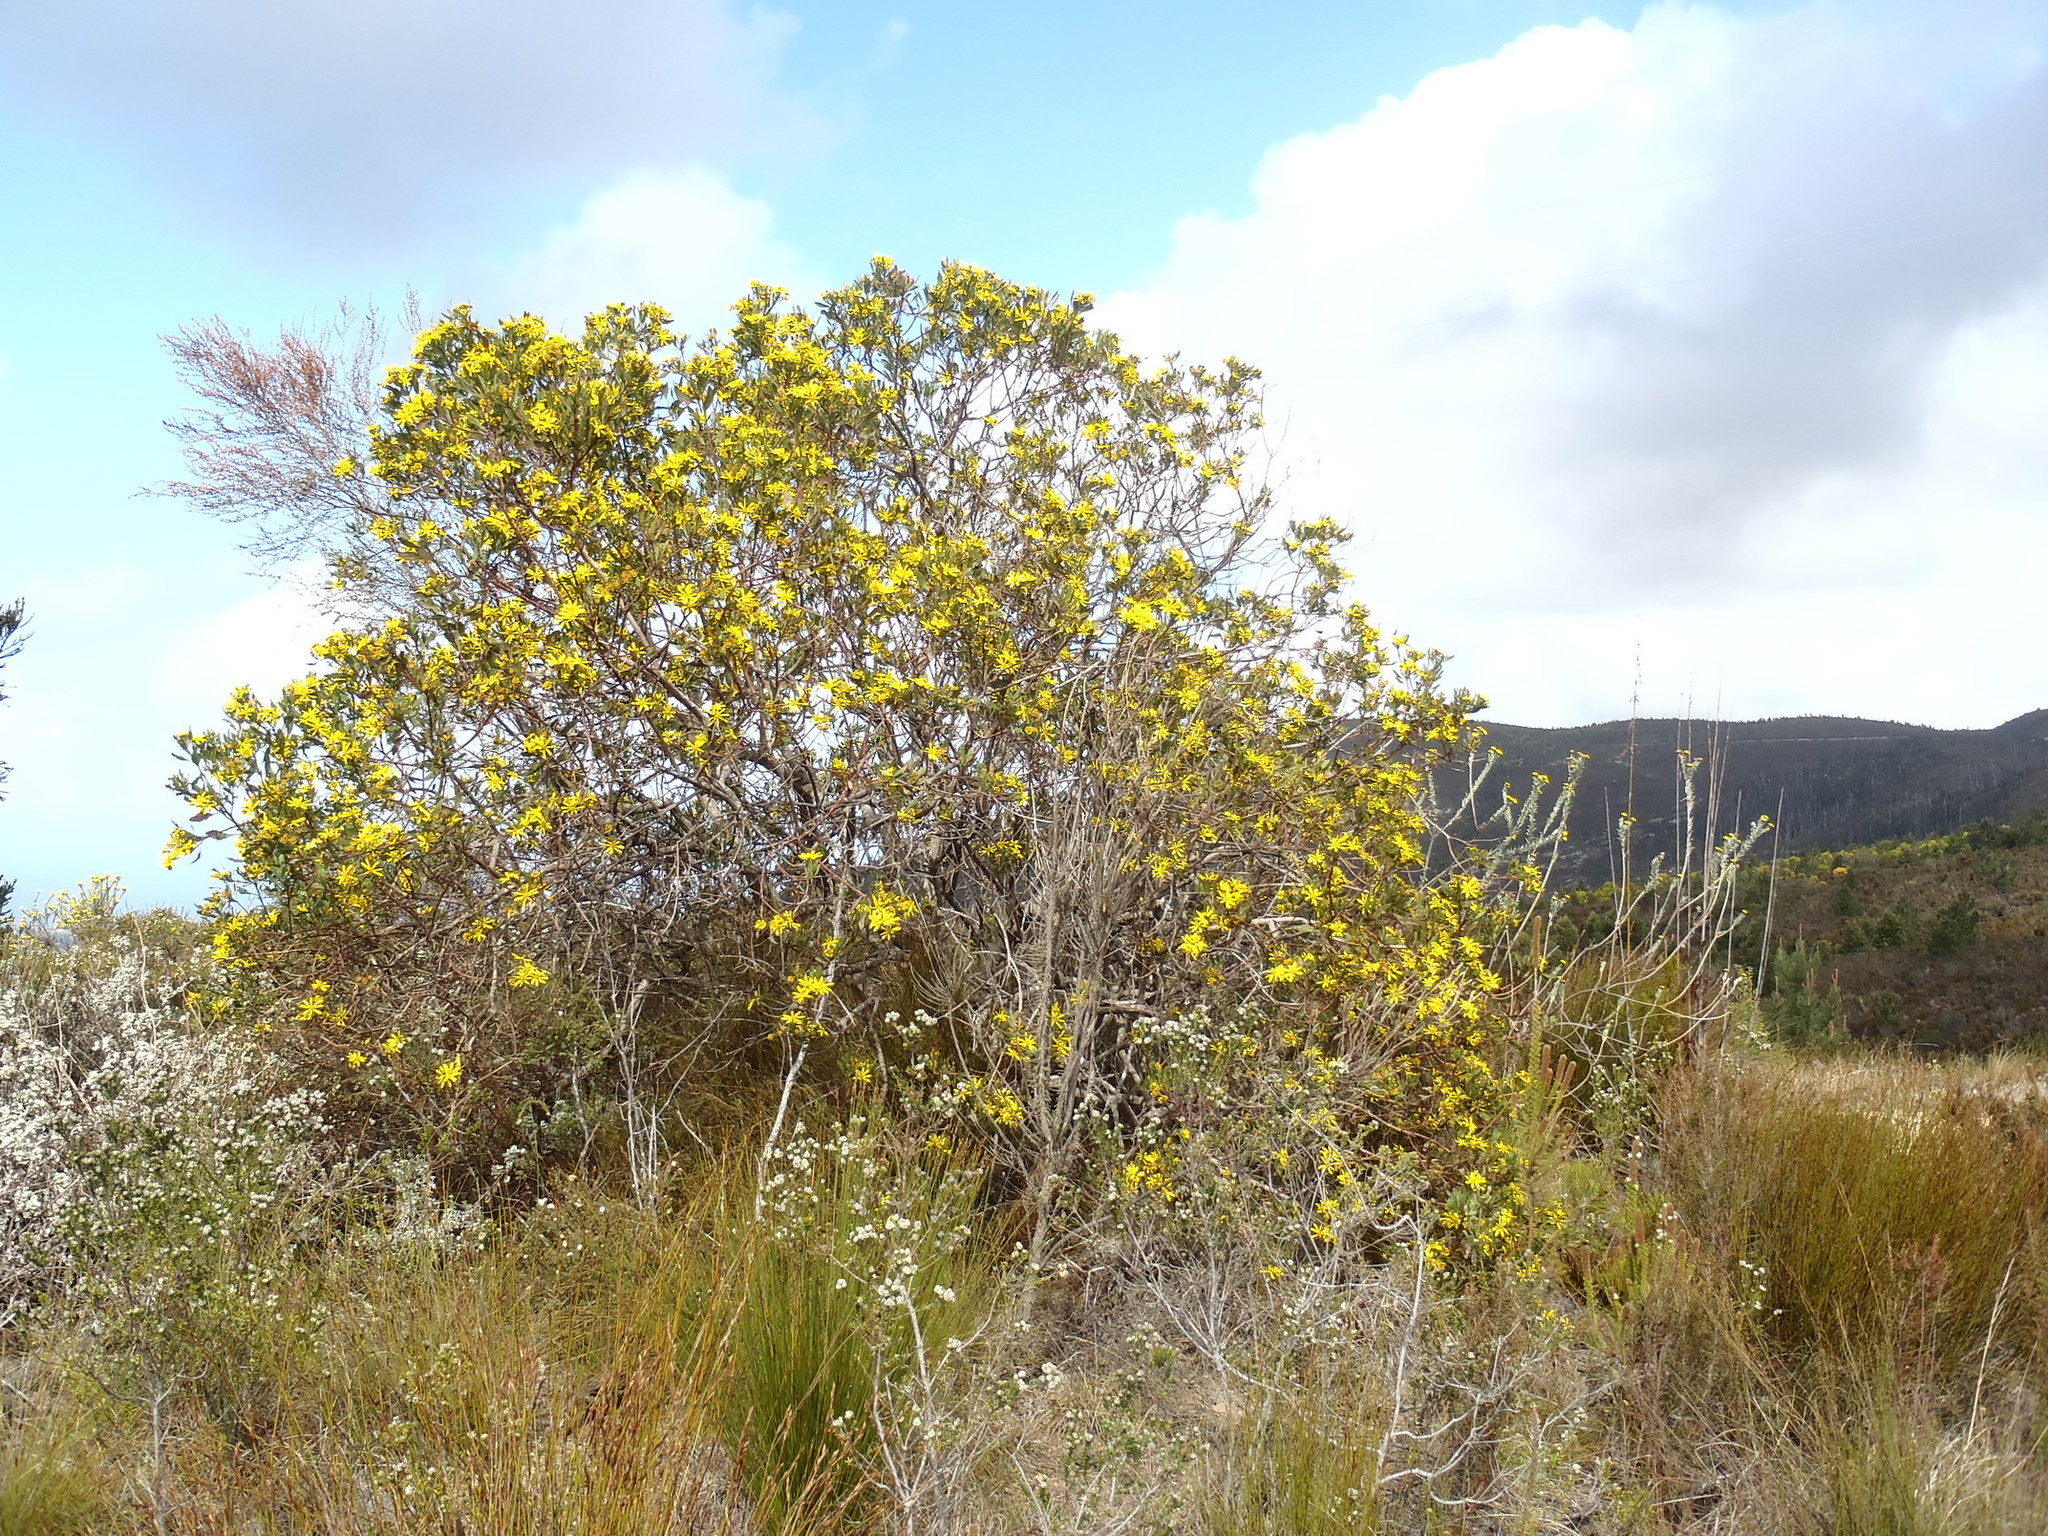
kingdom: Plantae
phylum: Tracheophyta
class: Magnoliopsida
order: Asterales
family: Asteraceae
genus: Osteospermum
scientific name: Osteospermum moniliferum
